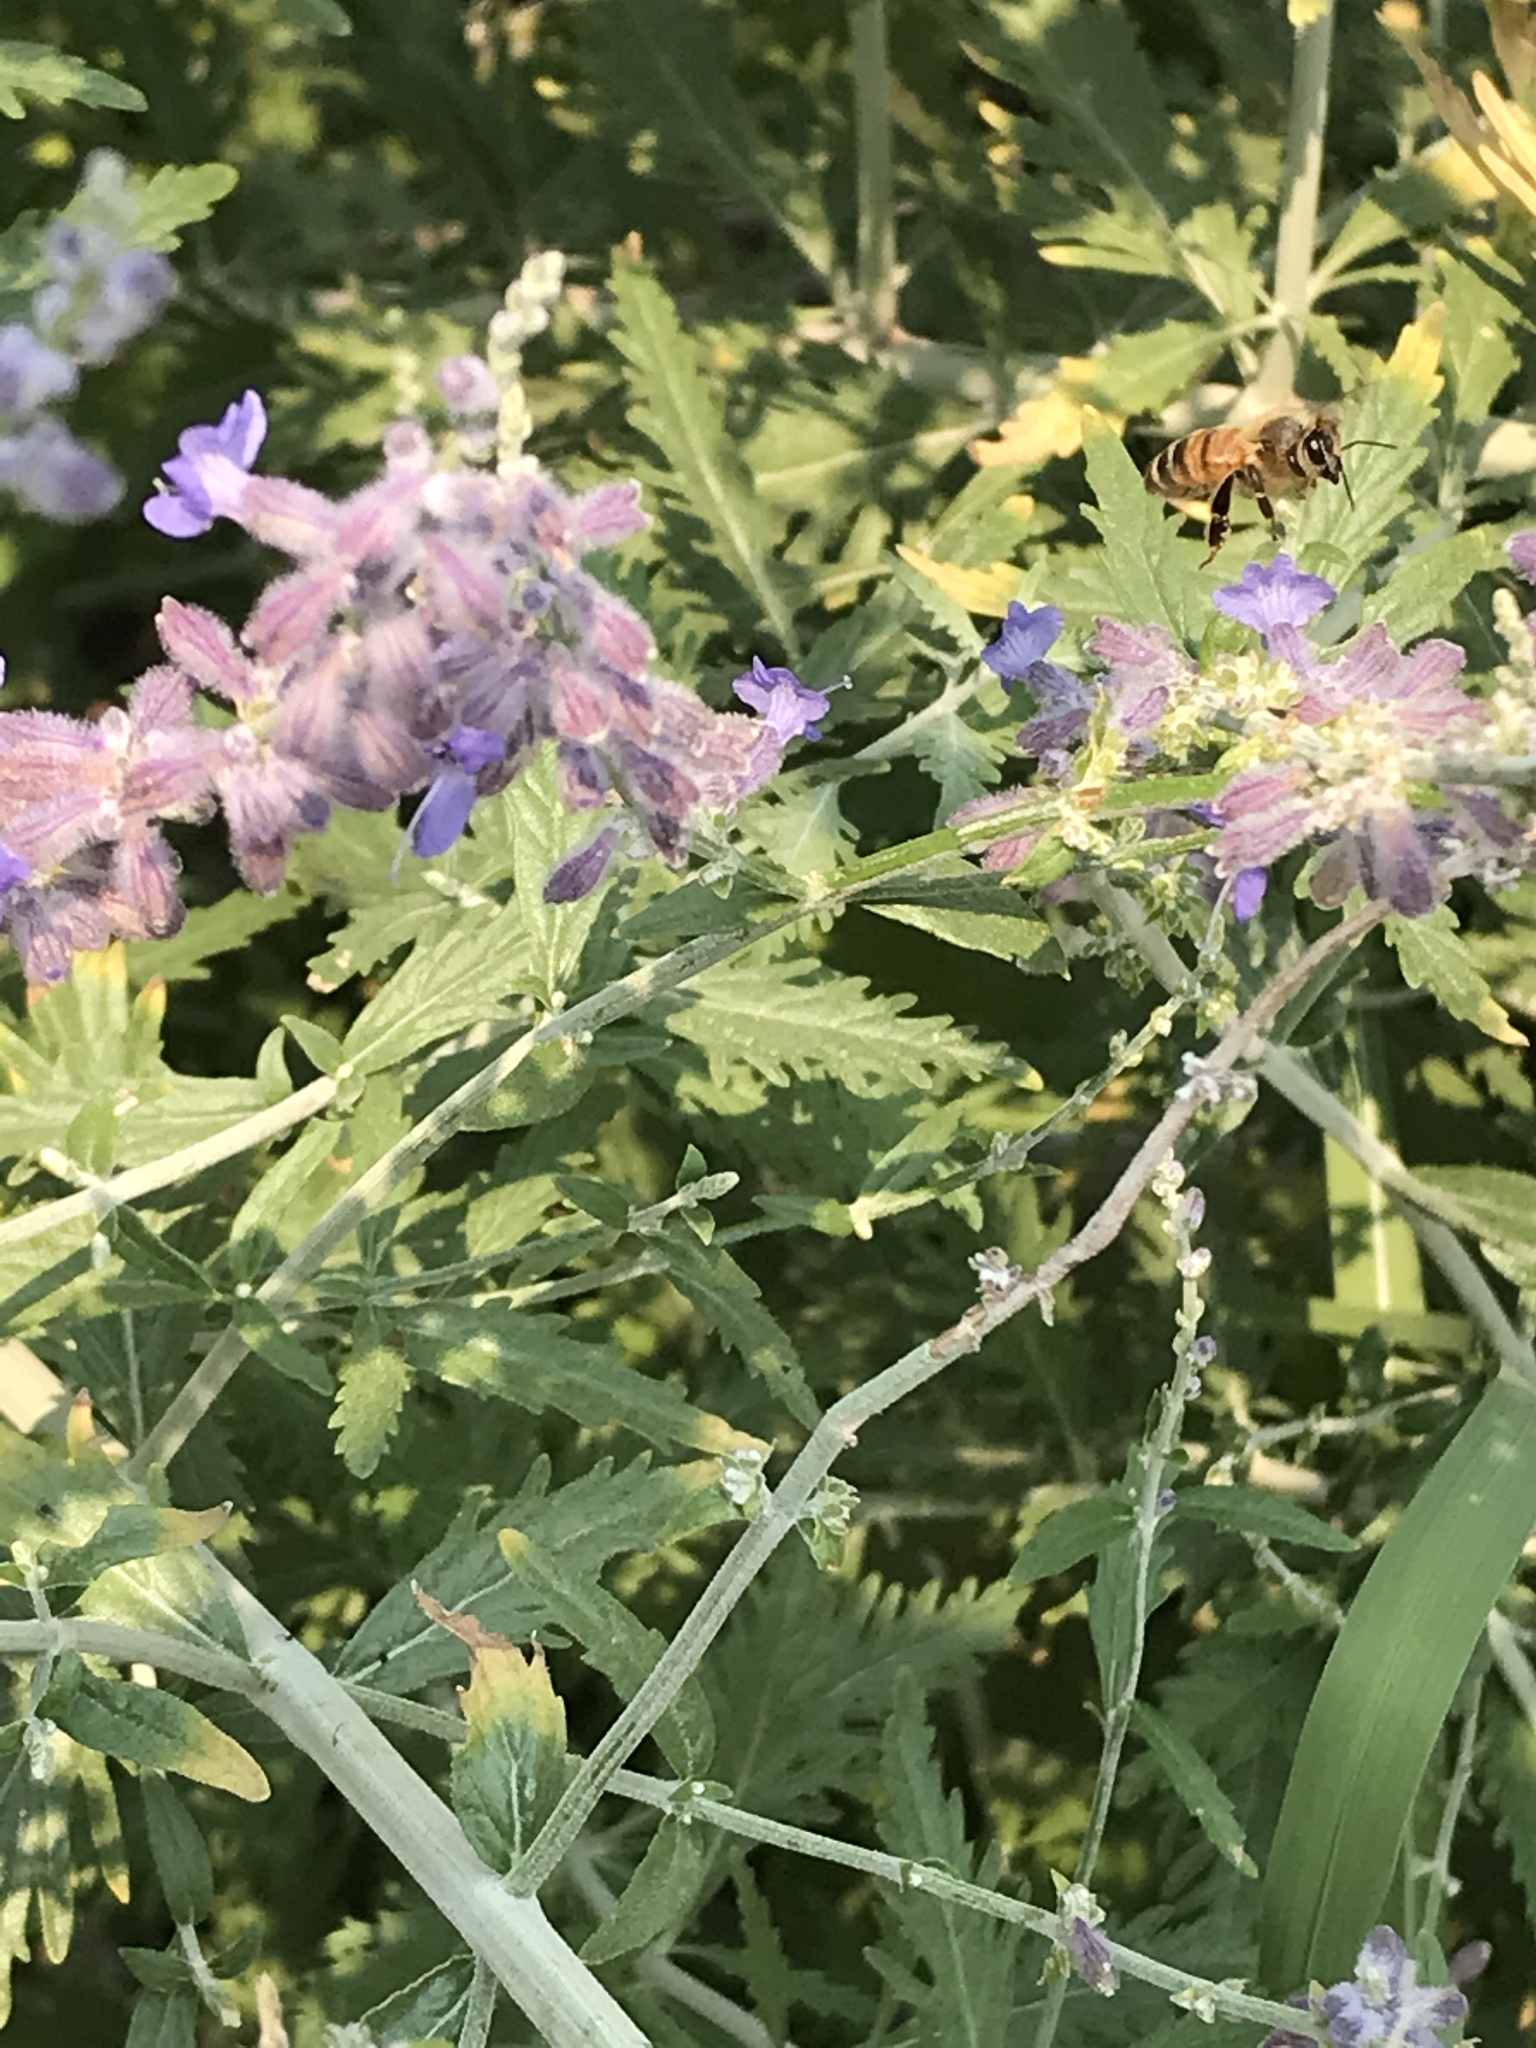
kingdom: Animalia
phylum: Arthropoda
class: Insecta
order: Hymenoptera
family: Apidae
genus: Apis
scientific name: Apis mellifera
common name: Honey bee
